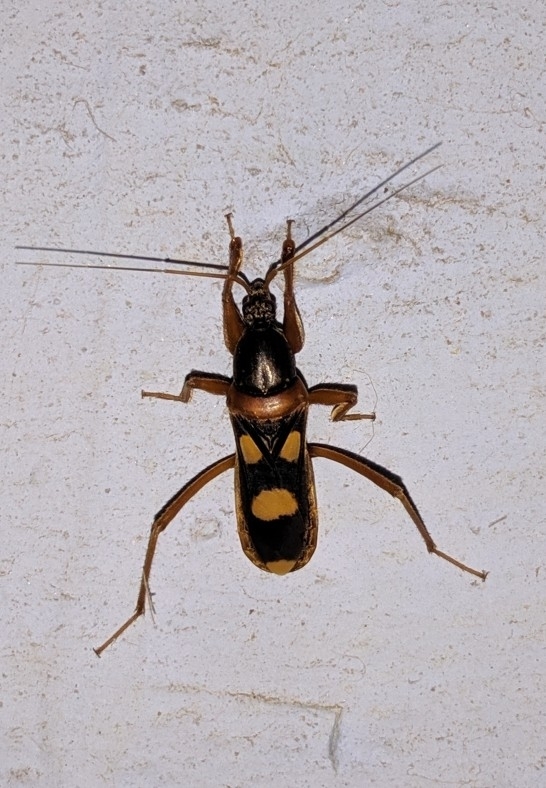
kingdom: Animalia
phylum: Arthropoda
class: Insecta
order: Hemiptera
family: Reduviidae
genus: Ectomocoris
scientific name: Ectomocoris quadriguttatus
